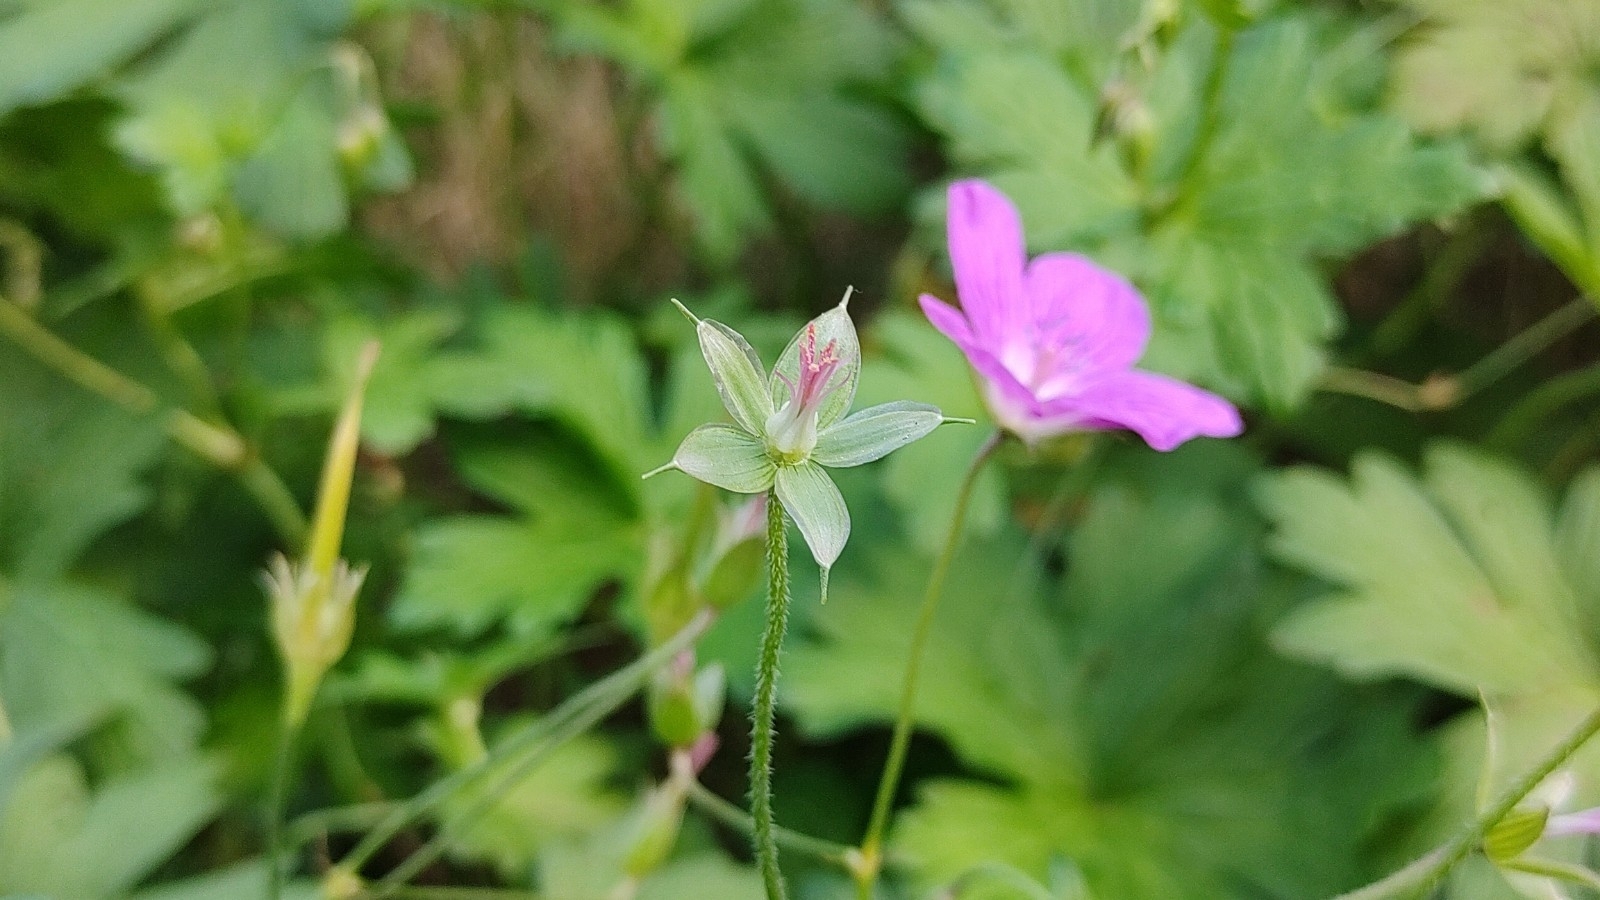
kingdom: Plantae
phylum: Tracheophyta
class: Magnoliopsida
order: Geraniales
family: Geraniaceae
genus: Geranium
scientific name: Geranium palustre
